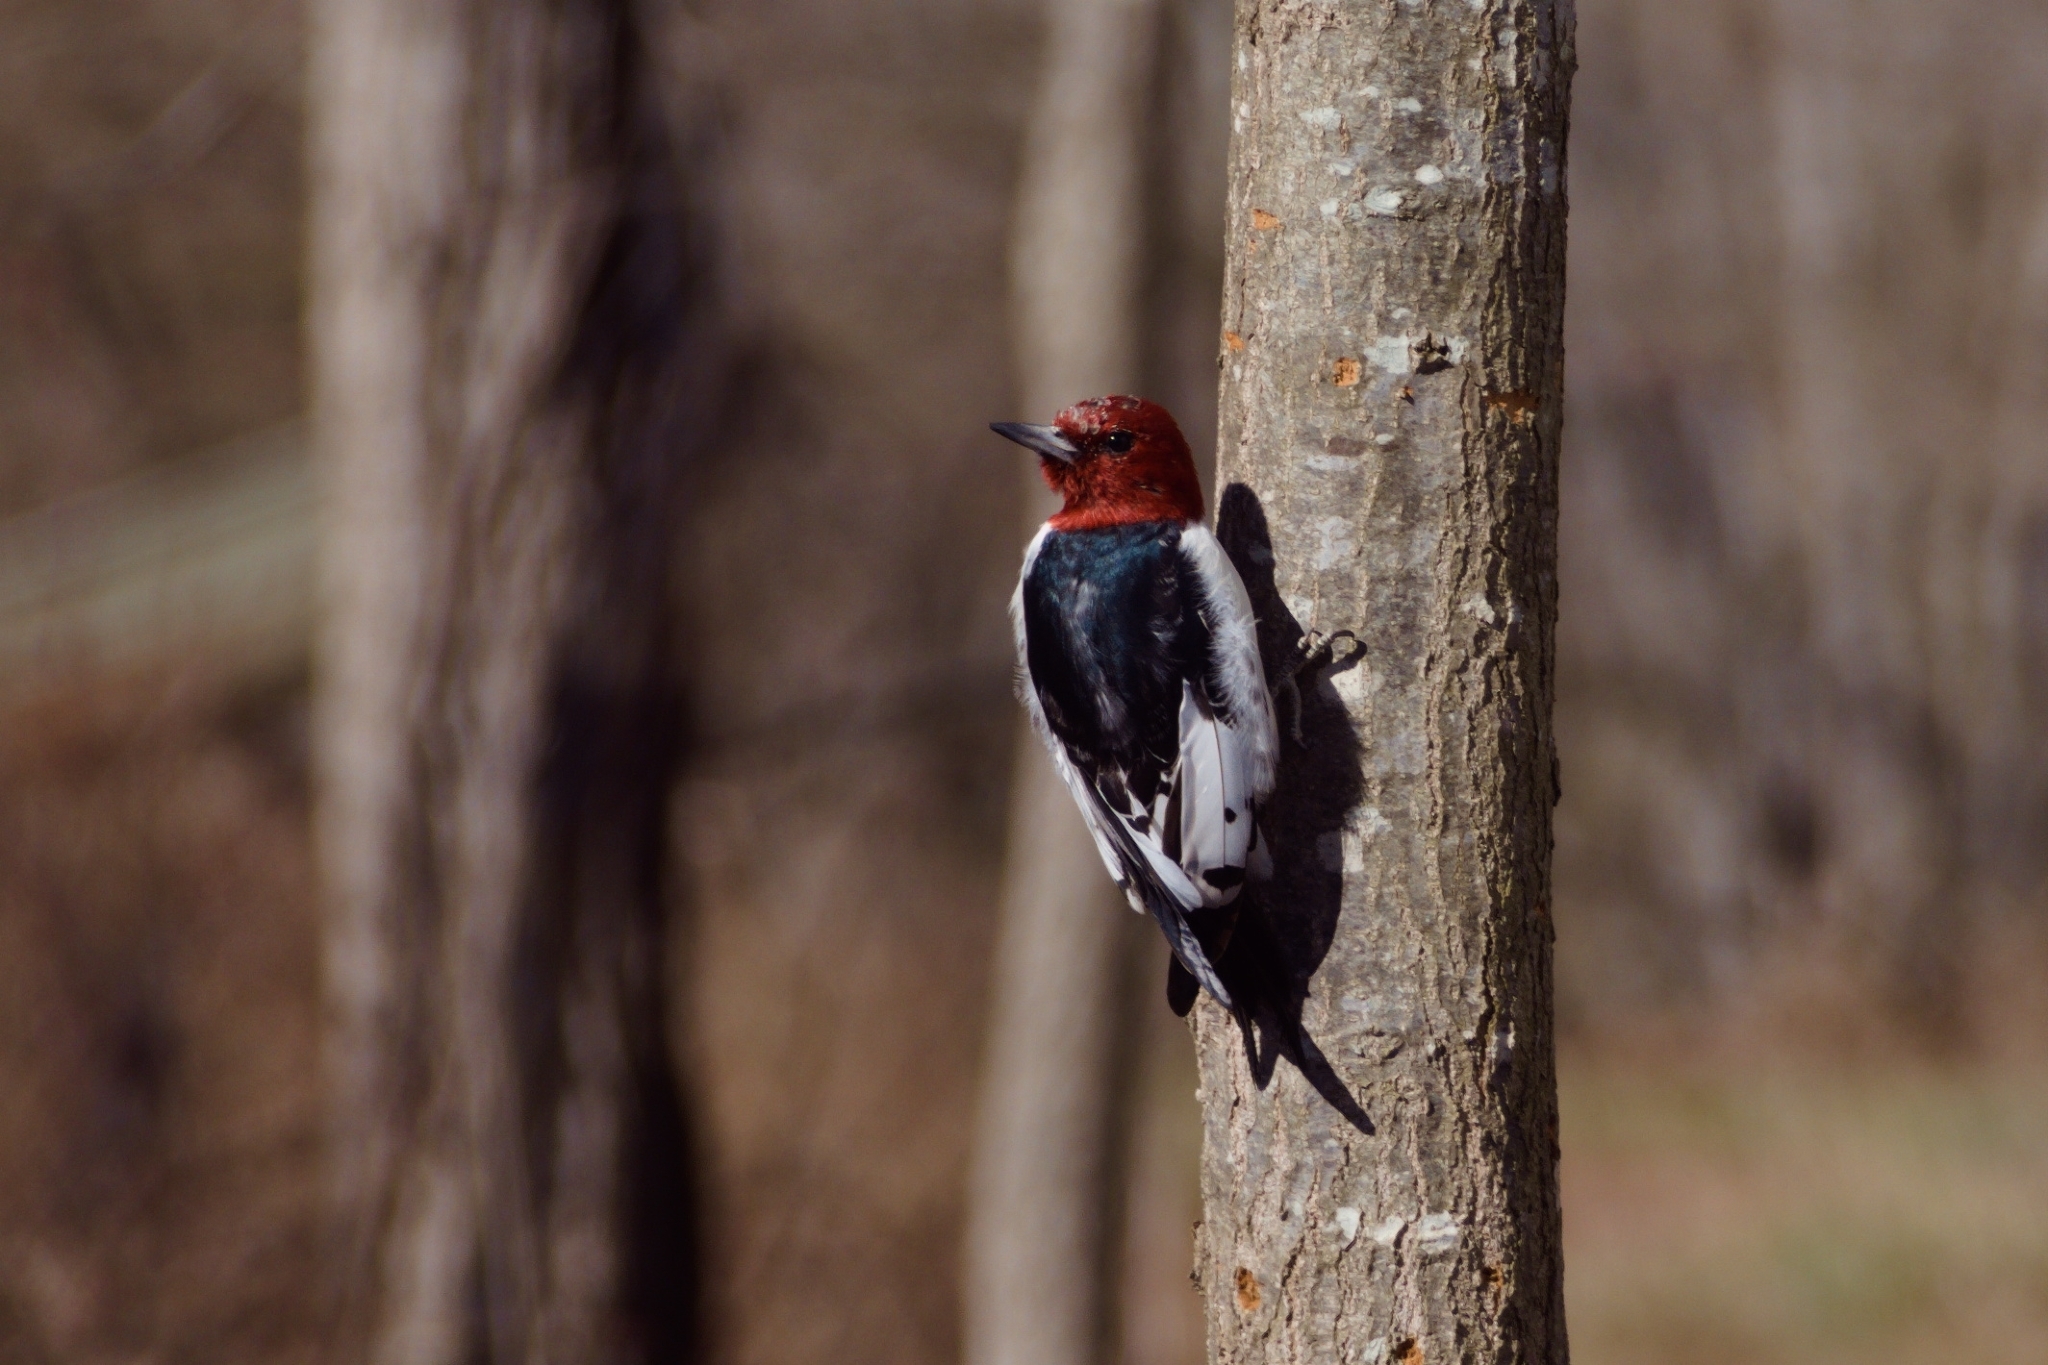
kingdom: Animalia
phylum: Chordata
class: Aves
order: Piciformes
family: Picidae
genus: Melanerpes
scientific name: Melanerpes erythrocephalus
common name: Red-headed woodpecker
